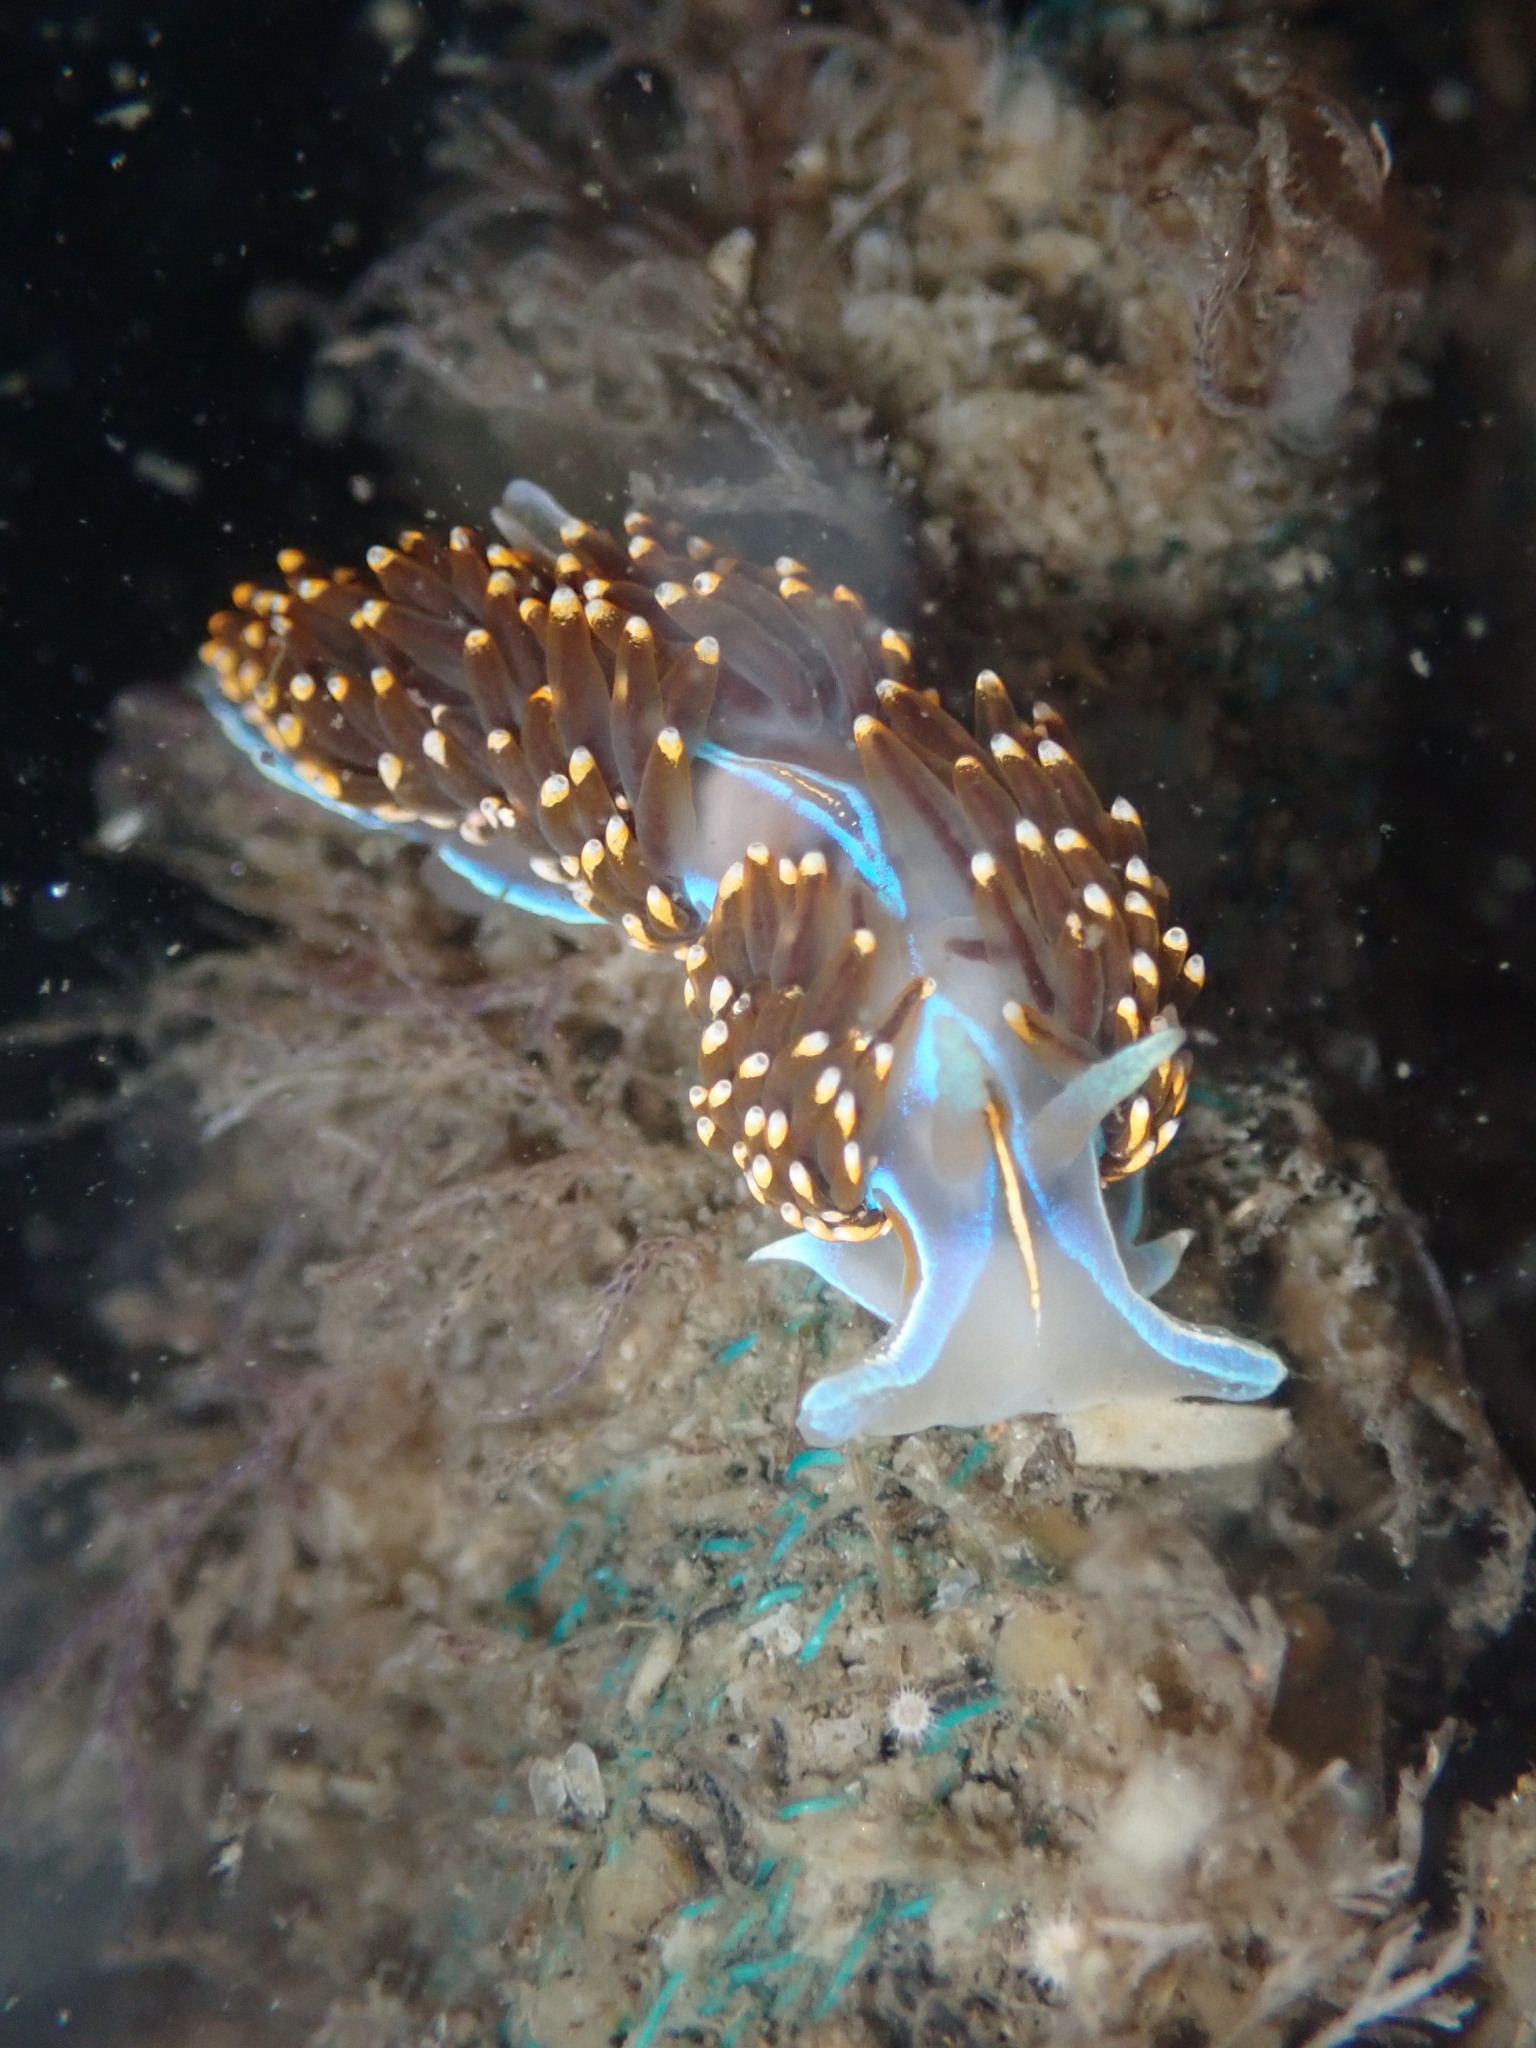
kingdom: Animalia
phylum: Mollusca
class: Gastropoda
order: Nudibranchia
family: Myrrhinidae
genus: Hermissenda
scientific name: Hermissenda opalescens
